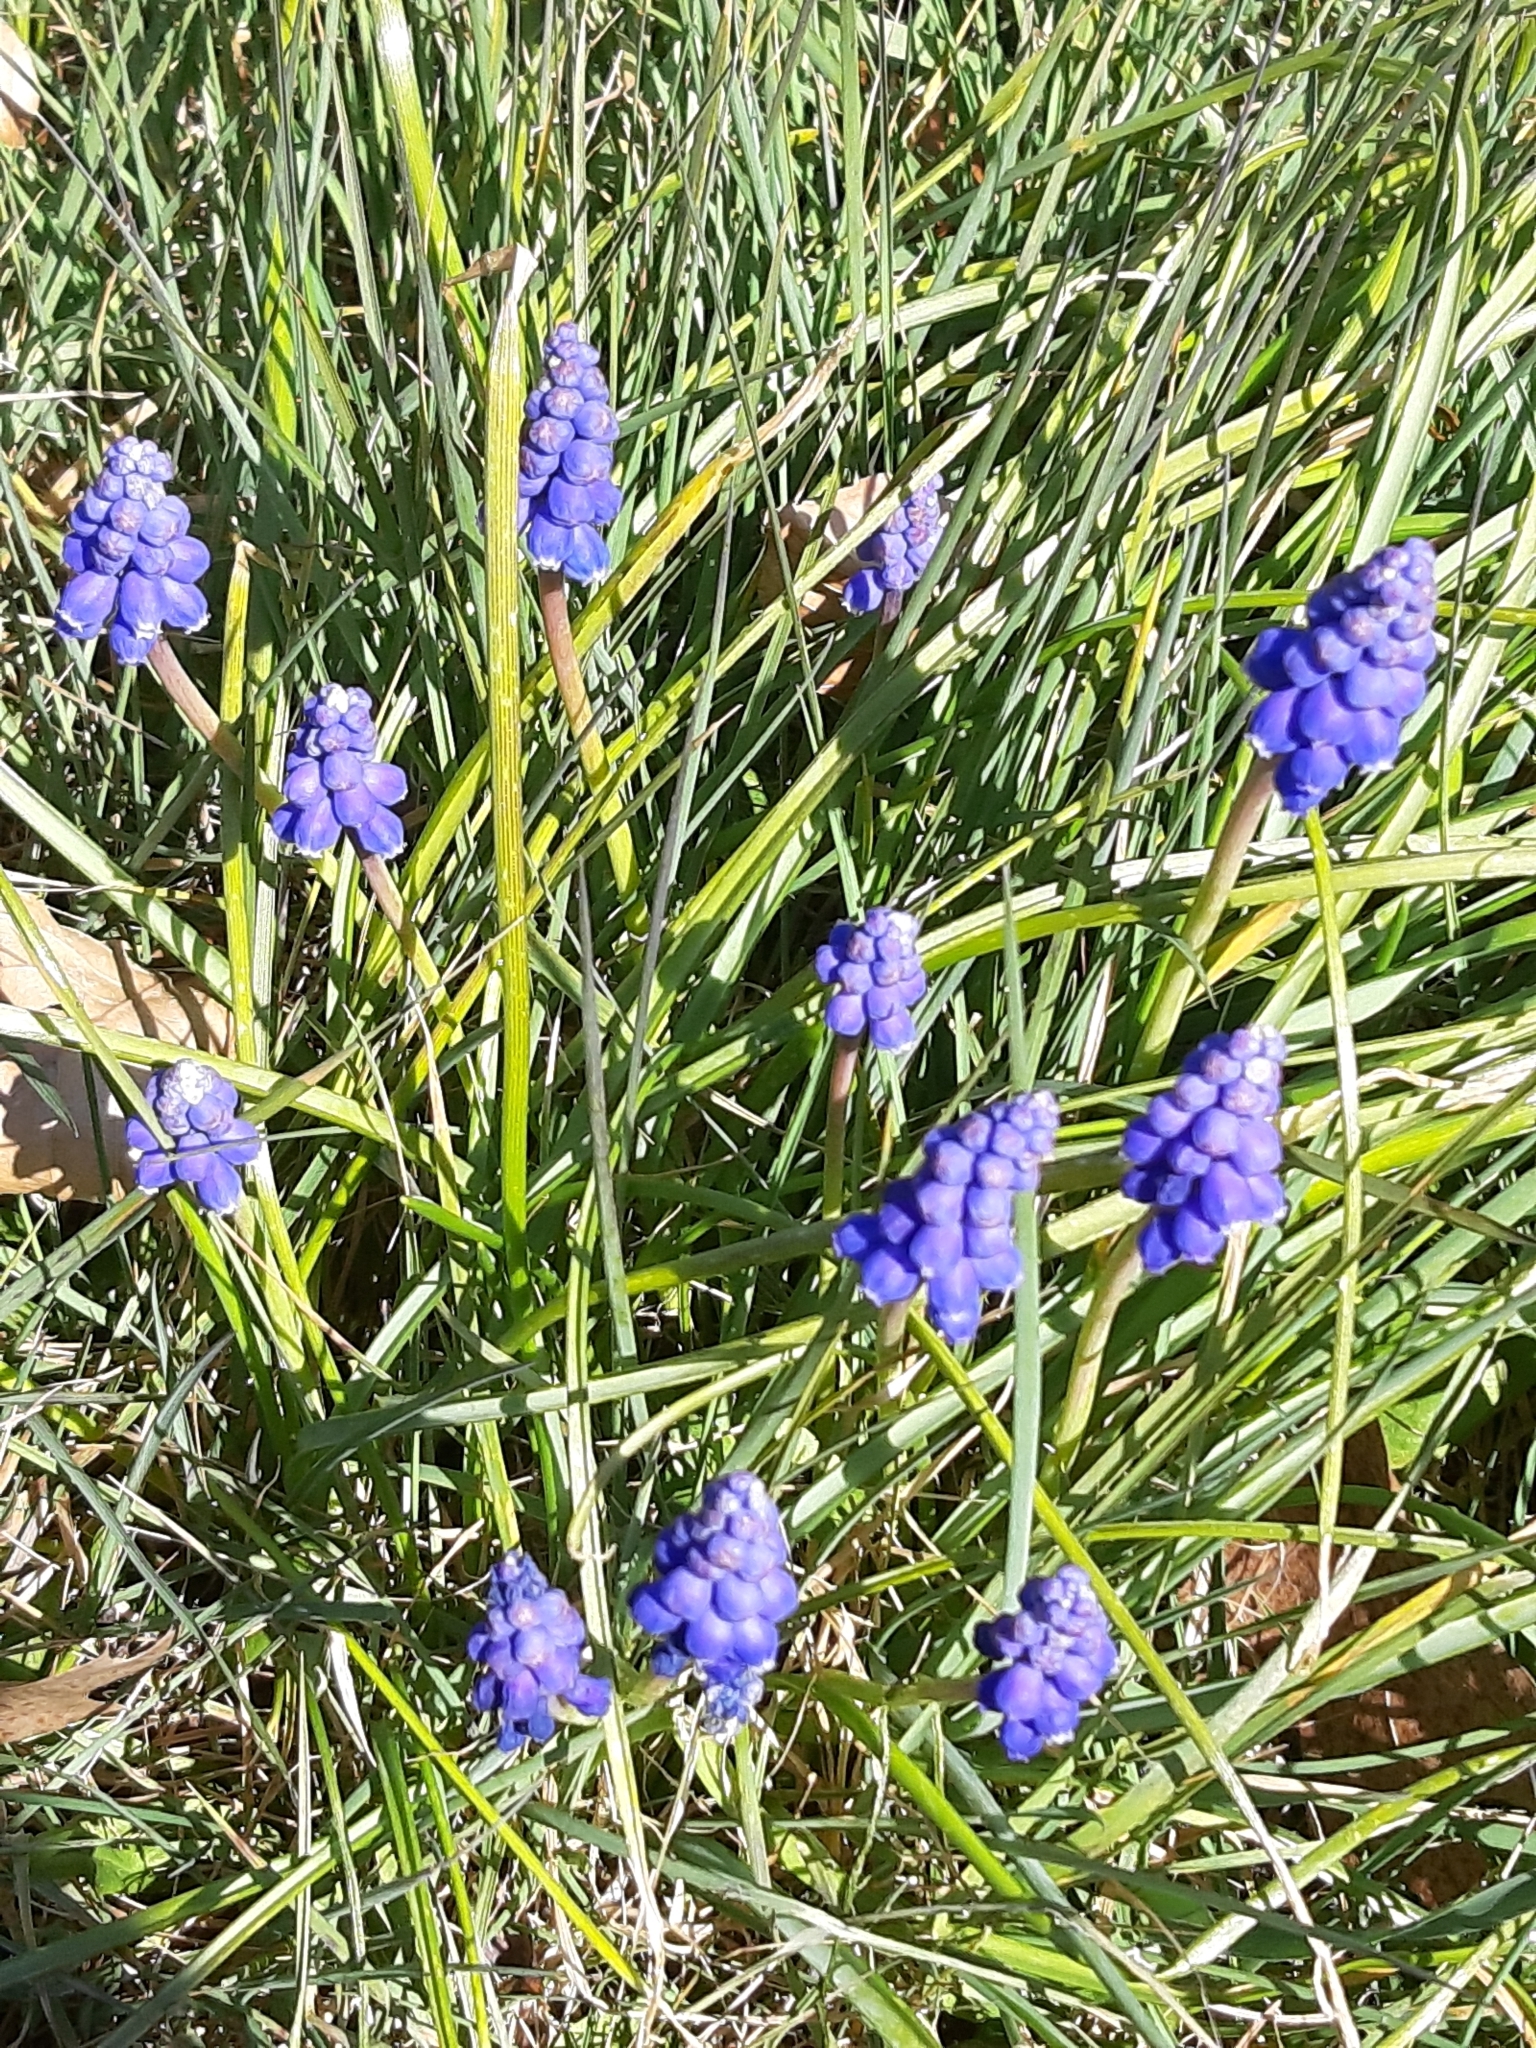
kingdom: Plantae
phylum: Tracheophyta
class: Liliopsida
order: Asparagales
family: Asparagaceae
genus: Muscari
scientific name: Muscari botryoides
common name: Compact grape-hyacinth
